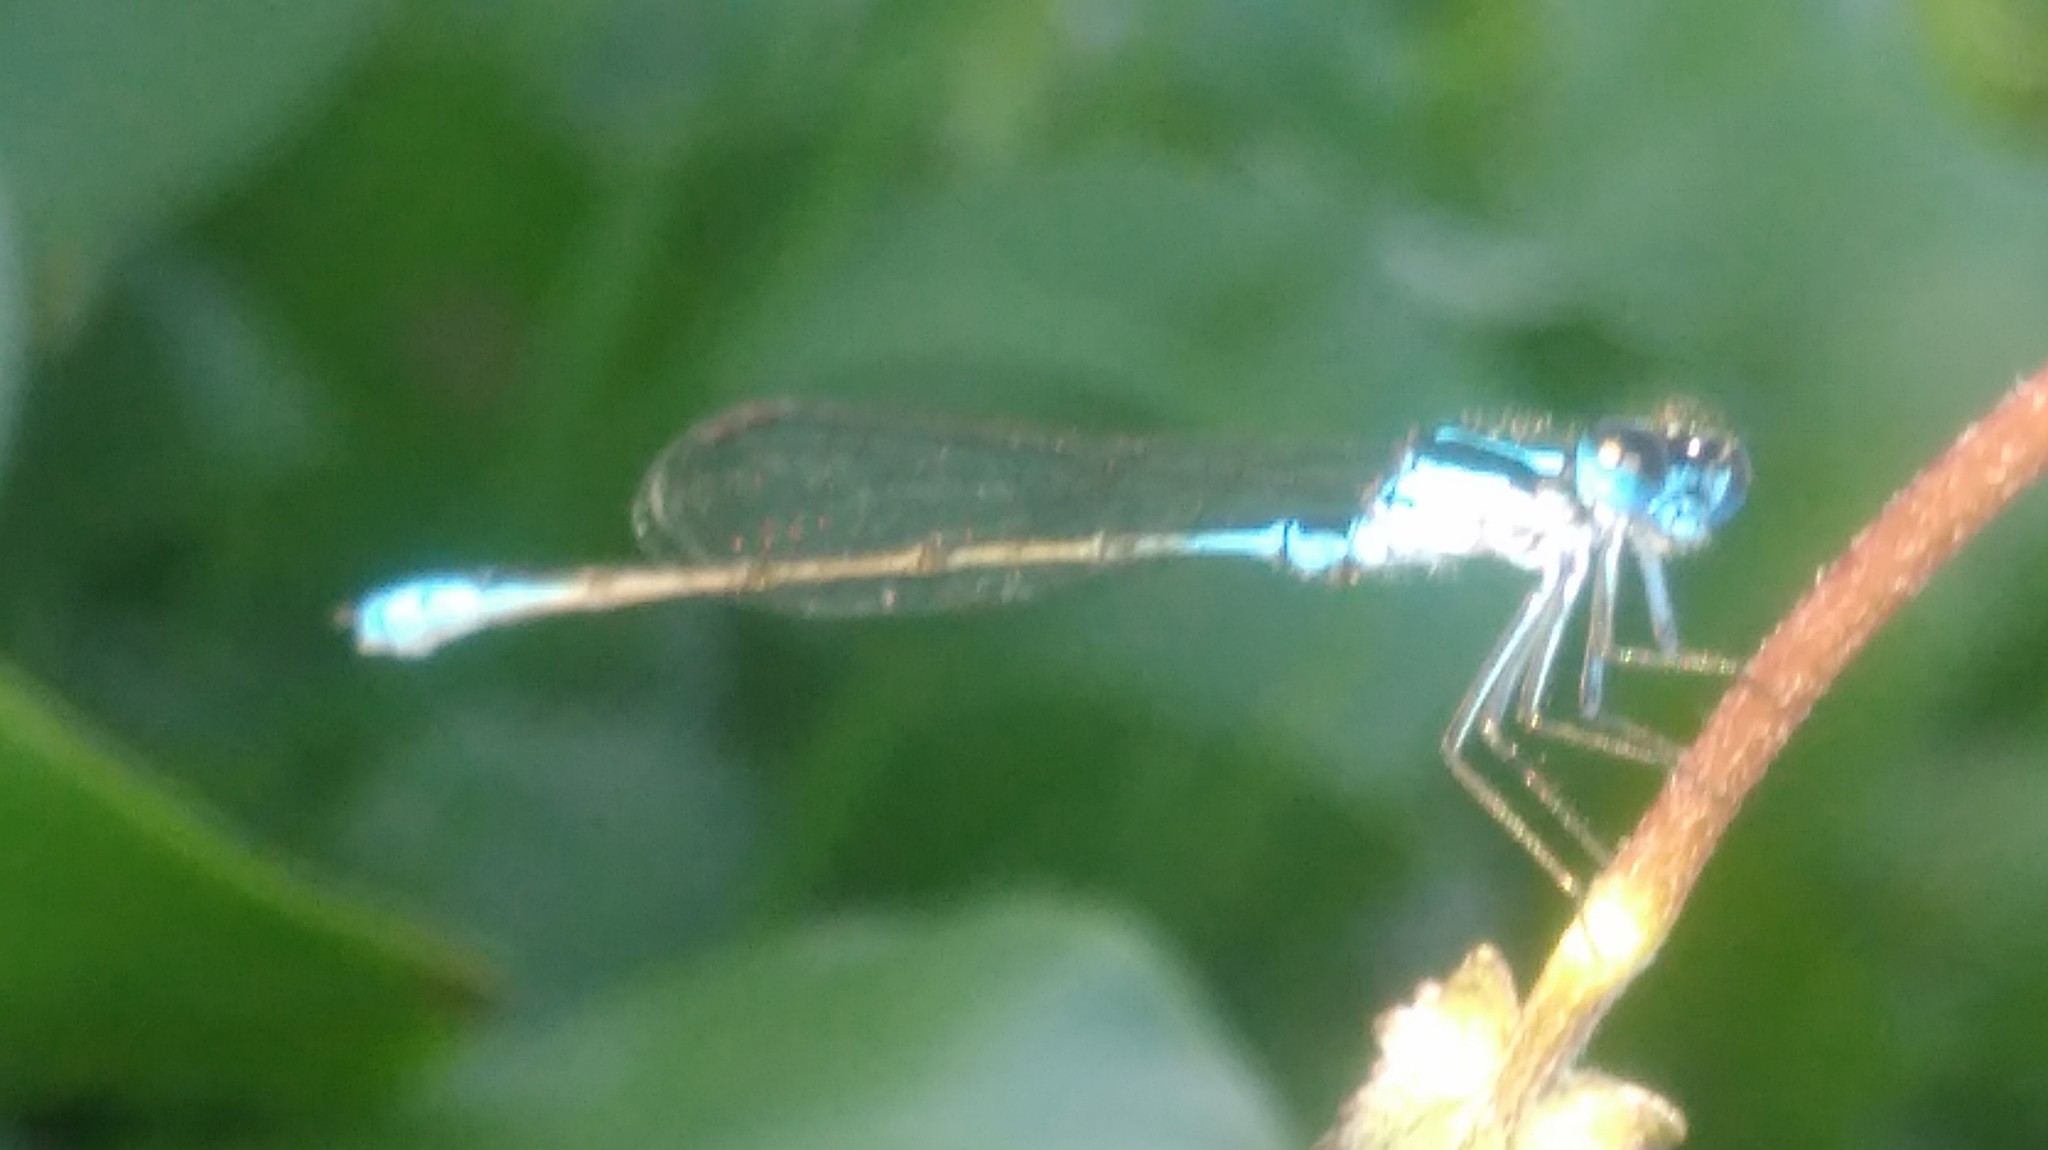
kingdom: Animalia
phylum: Arthropoda
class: Insecta
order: Odonata
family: Coenagrionidae
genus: Homeoura
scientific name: Homeoura chelifera
